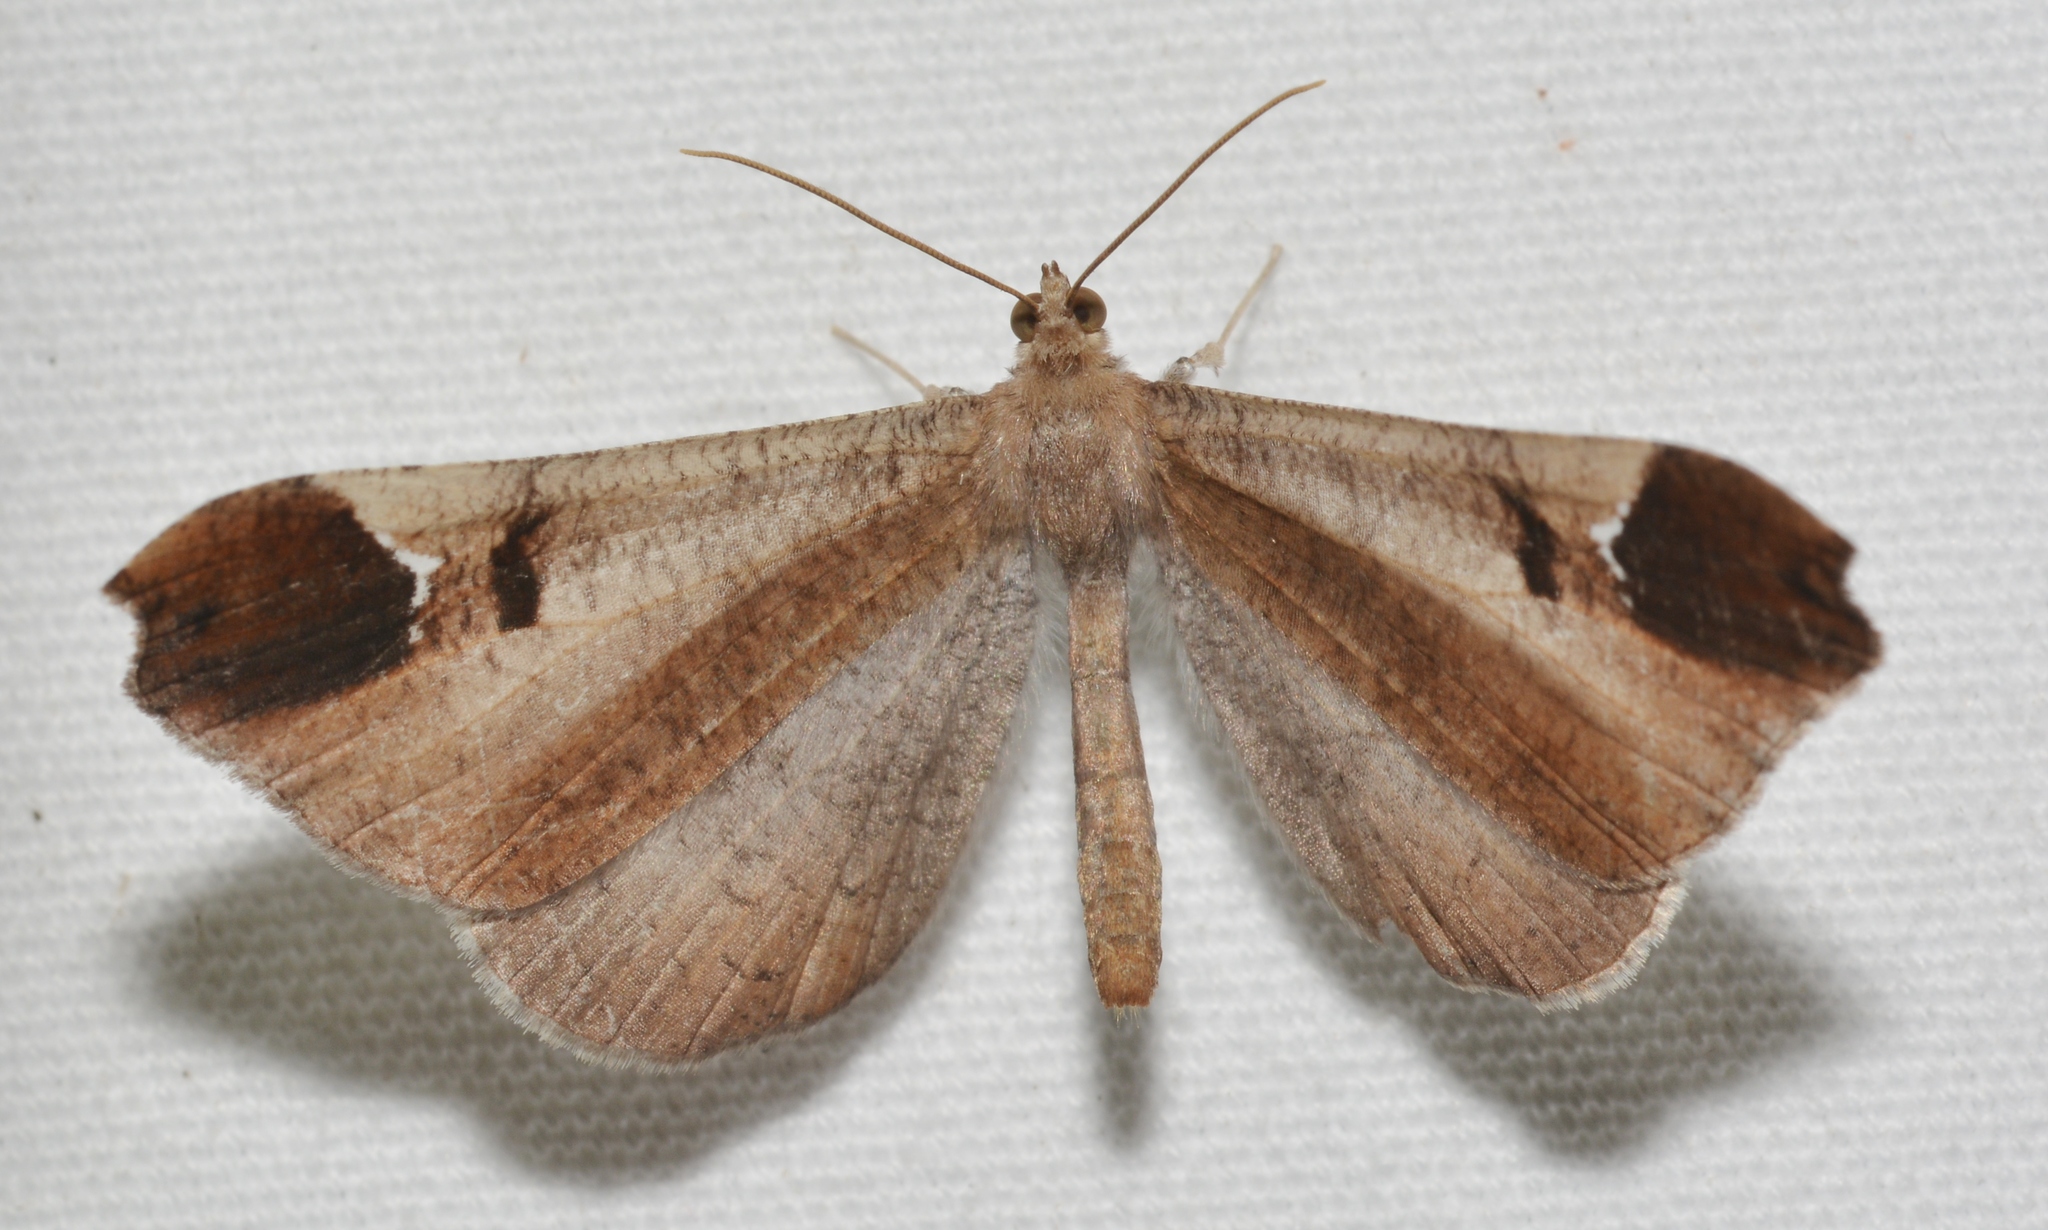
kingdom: Animalia
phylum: Arthropoda
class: Insecta
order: Lepidoptera
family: Hedylidae
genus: Macrosoma
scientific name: Macrosoma majormacula
